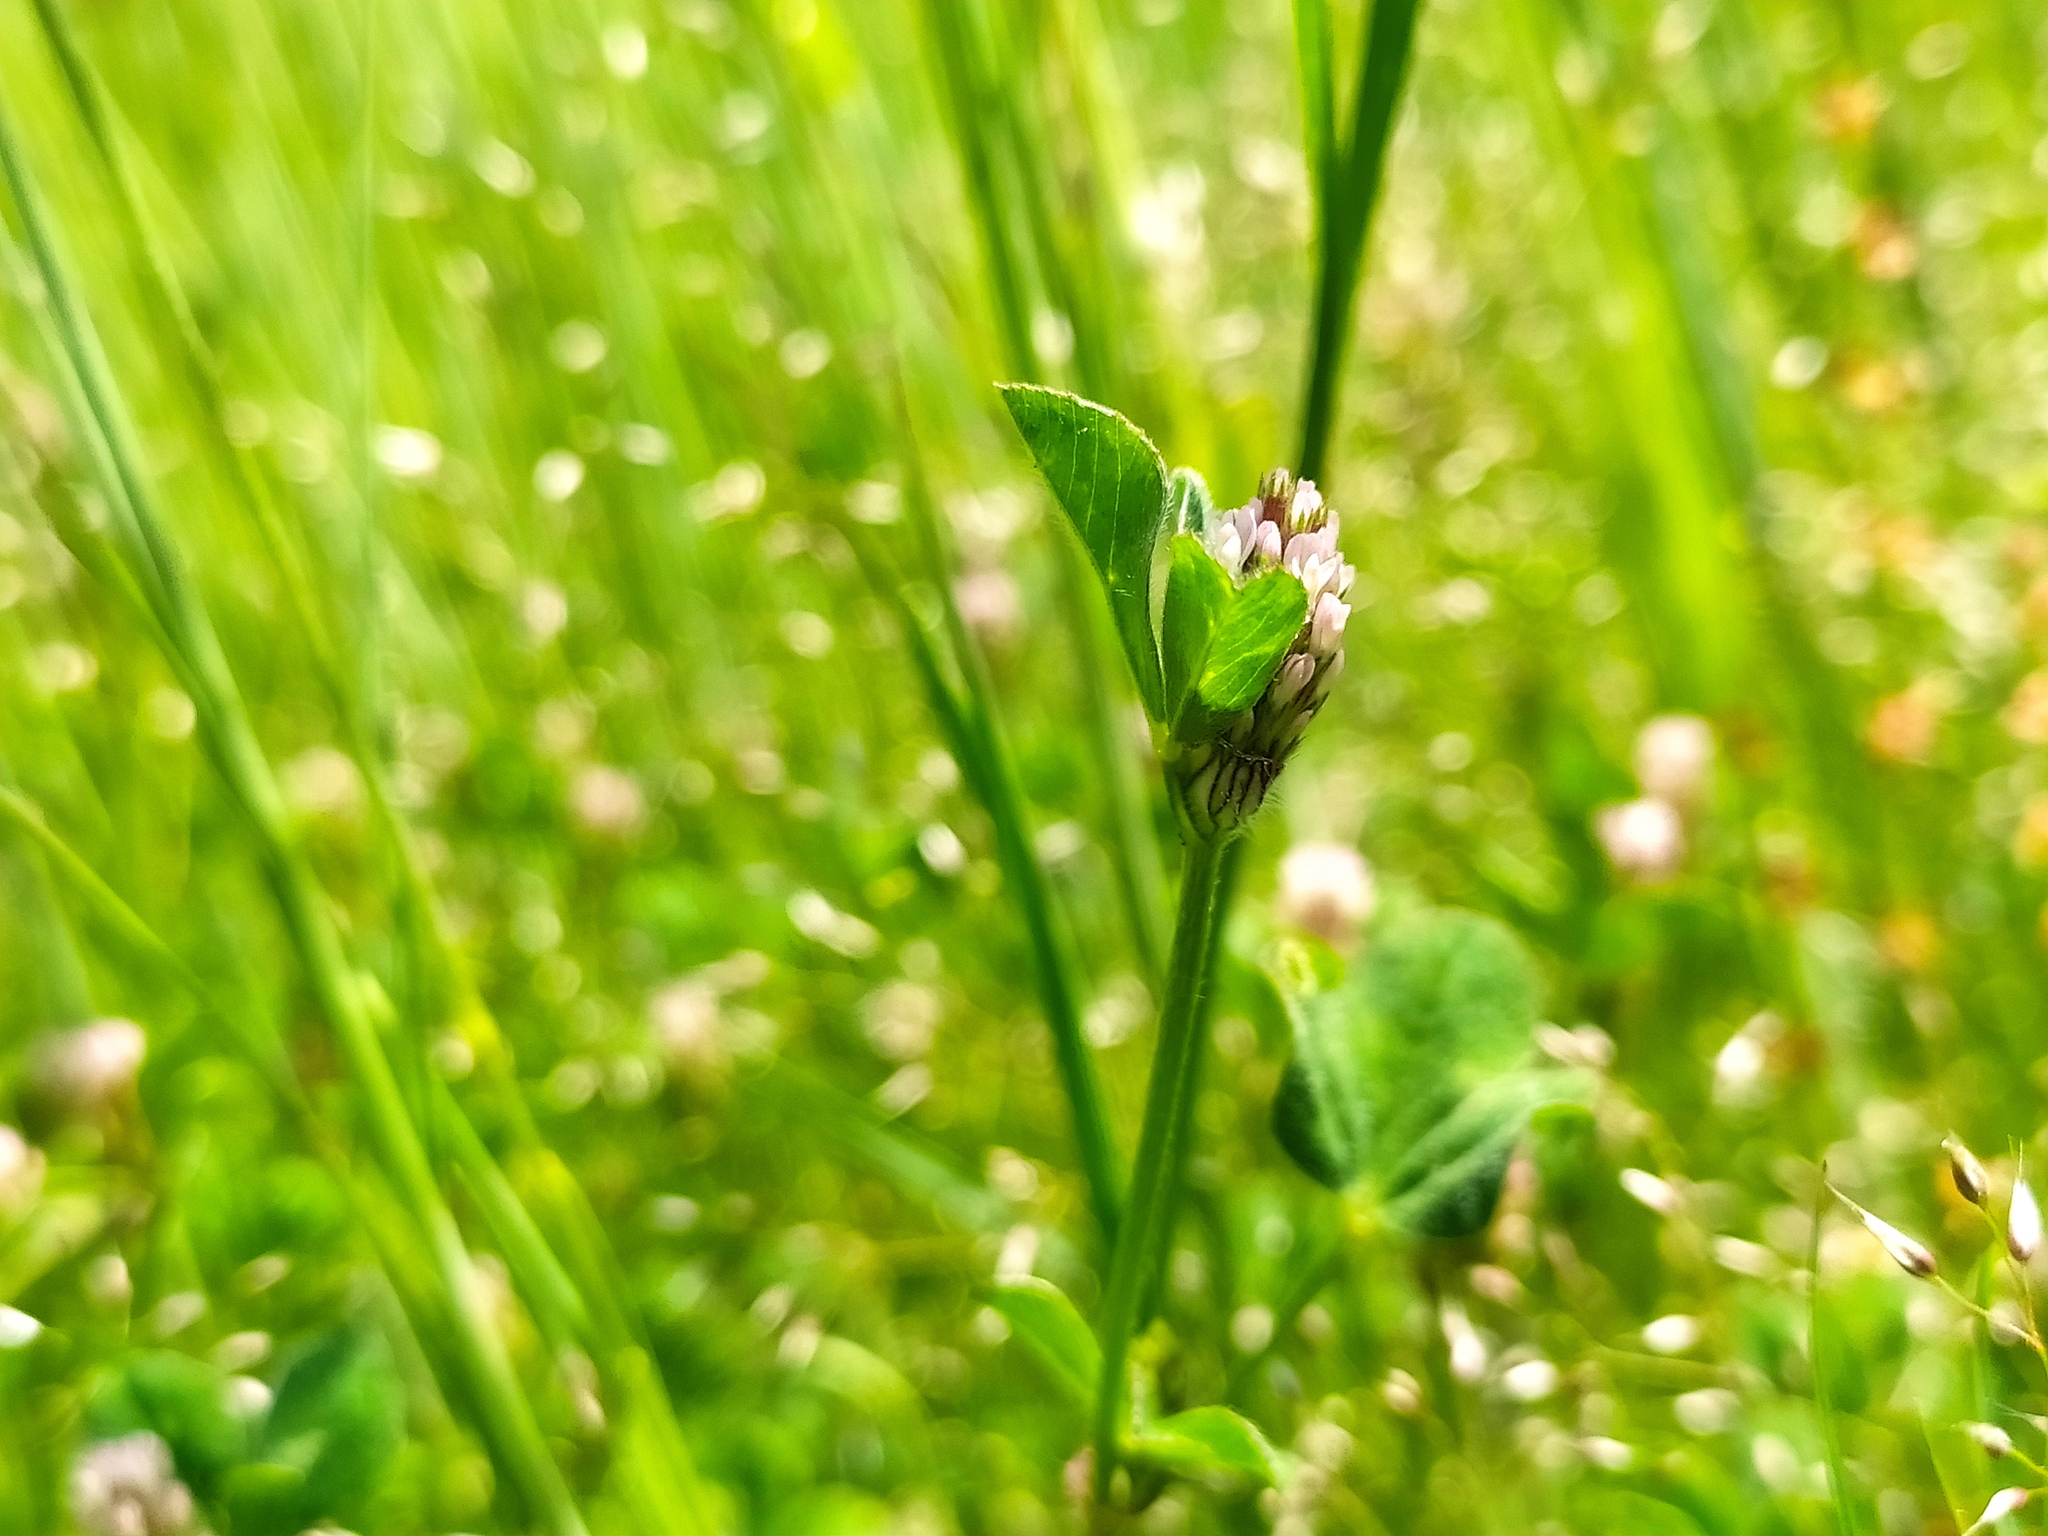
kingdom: Plantae
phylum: Tracheophyta
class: Magnoliopsida
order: Fabales
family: Fabaceae
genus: Trifolium
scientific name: Trifolium striatum
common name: Knotted clover
